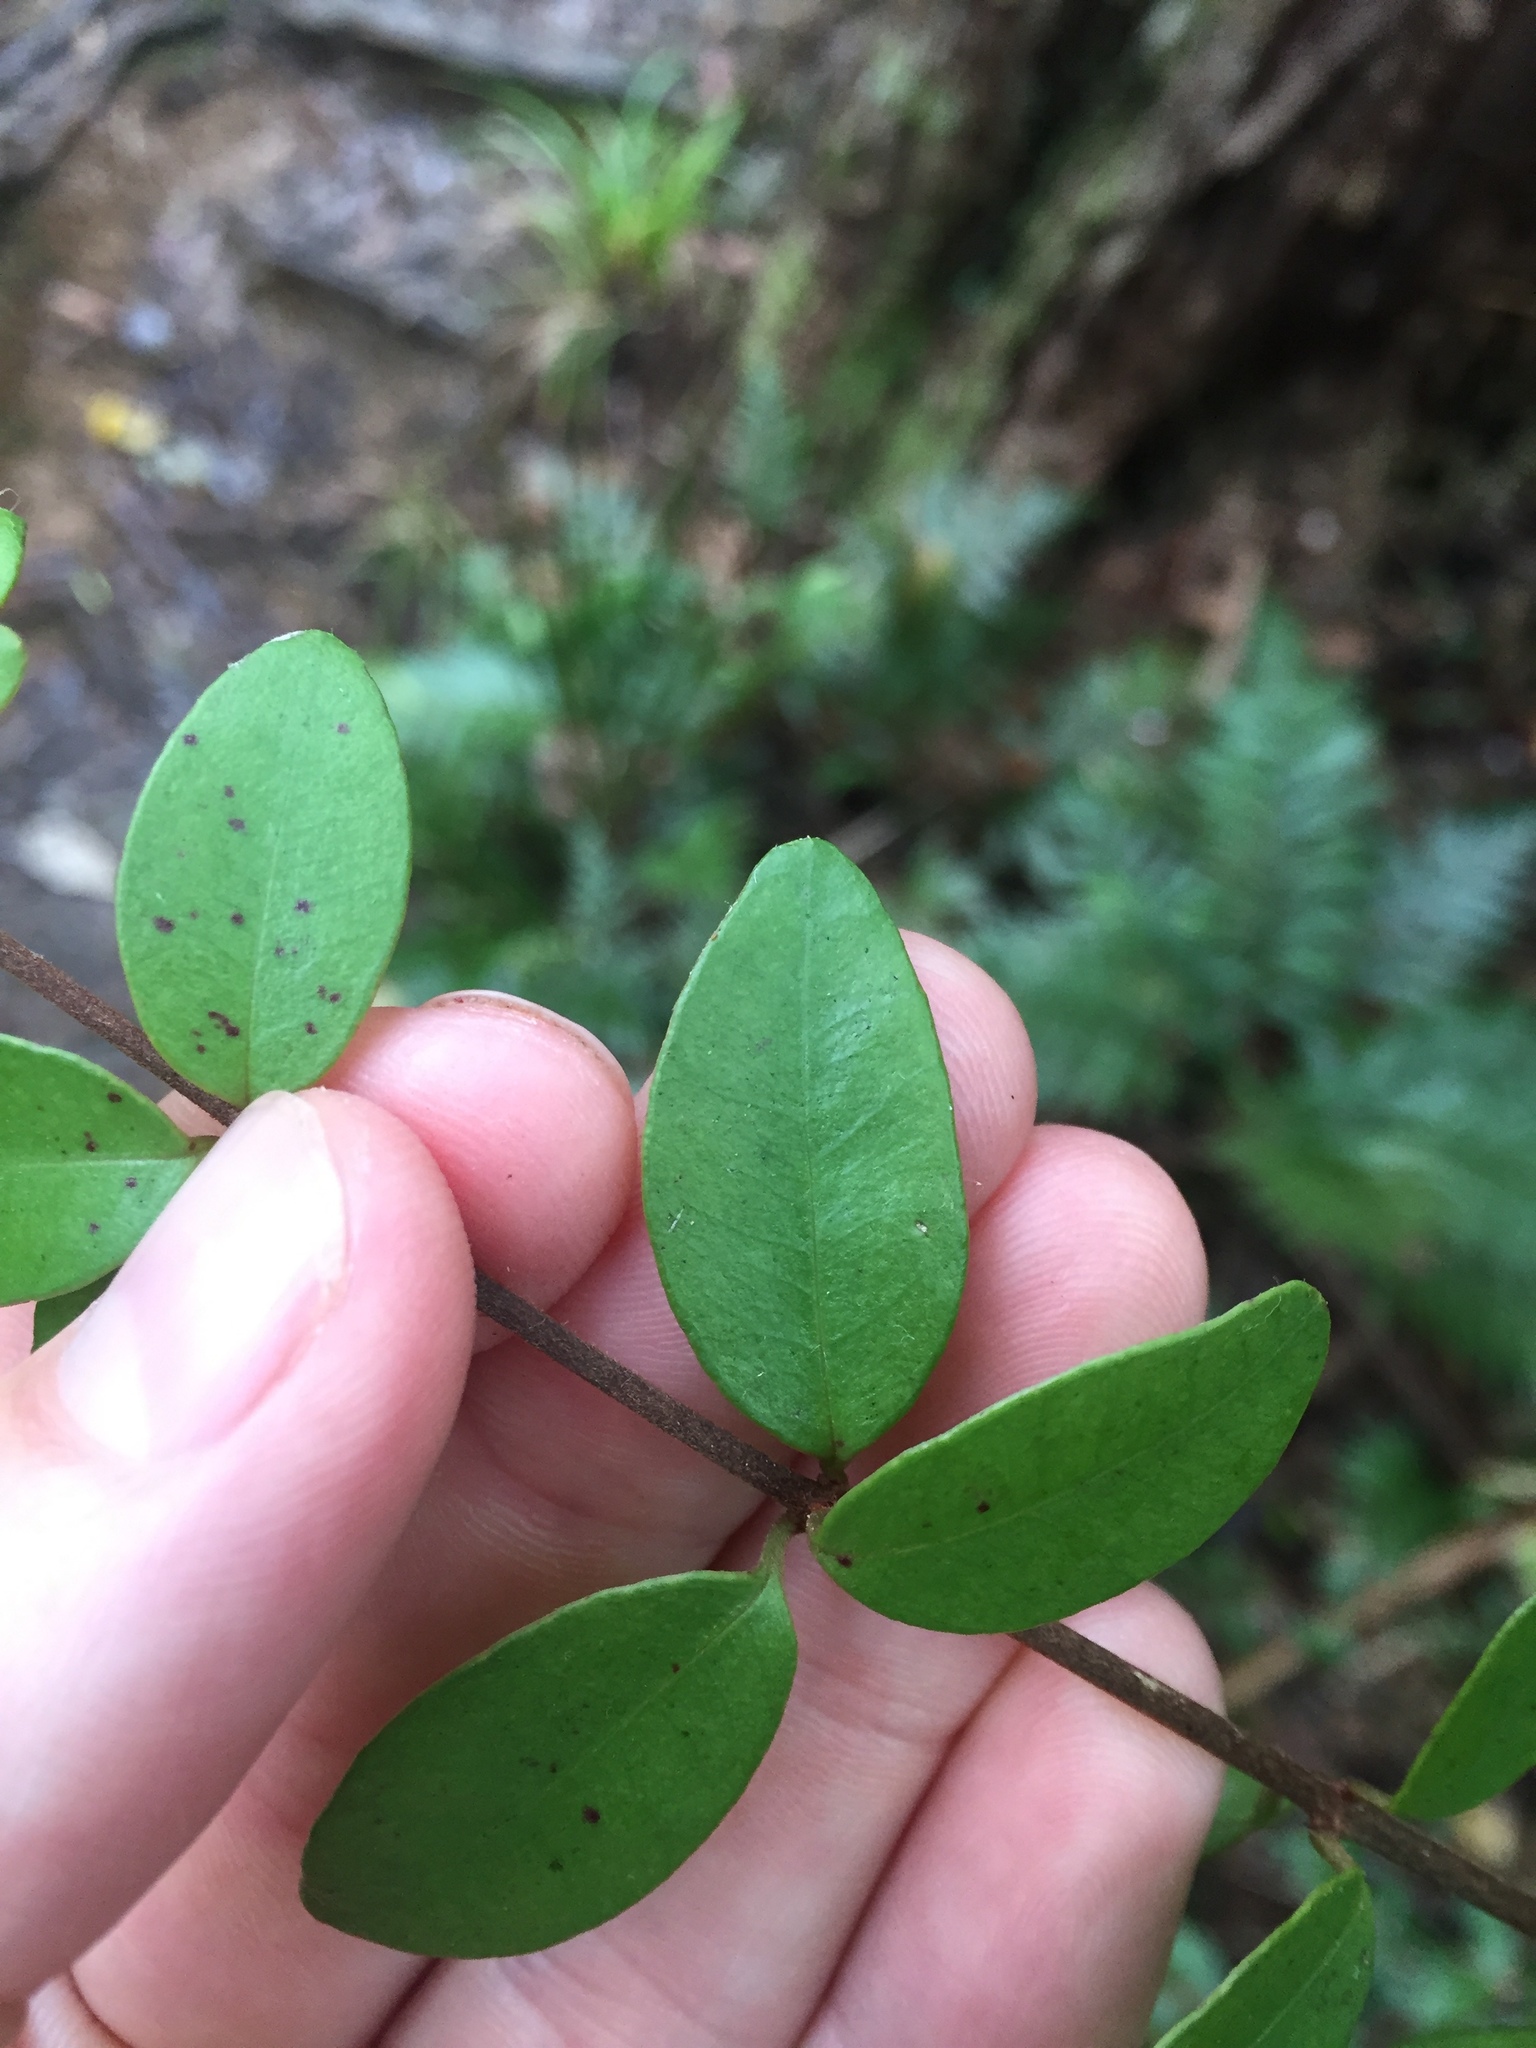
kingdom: Plantae
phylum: Tracheophyta
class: Magnoliopsida
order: Myrtales
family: Myrtaceae
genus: Metrosideros
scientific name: Metrosideros fulgens
